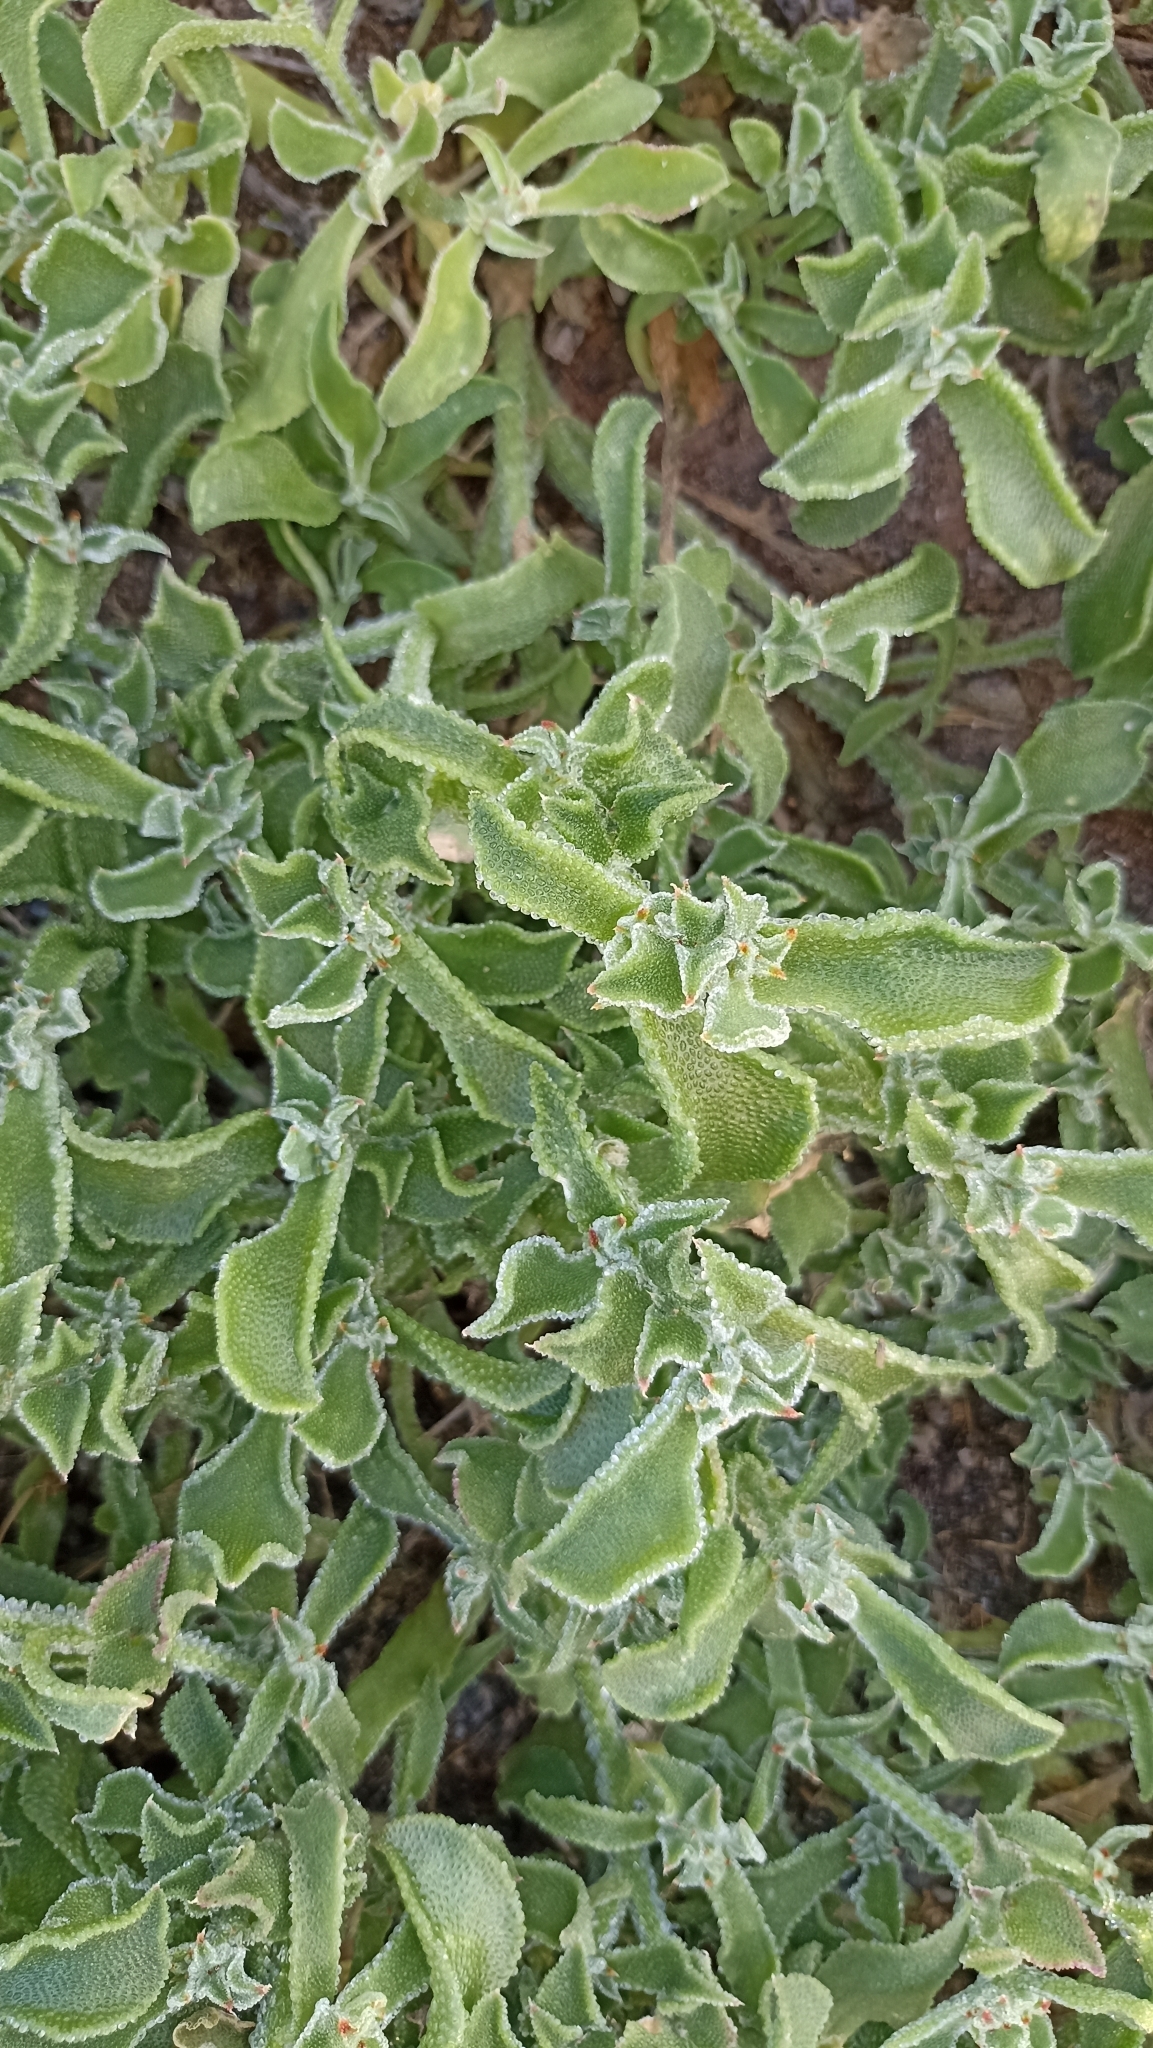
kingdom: Plantae
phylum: Tracheophyta
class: Magnoliopsida
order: Caryophyllales
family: Aizoaceae
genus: Mesembryanthemum
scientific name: Mesembryanthemum crystallinum
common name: Common iceplant
